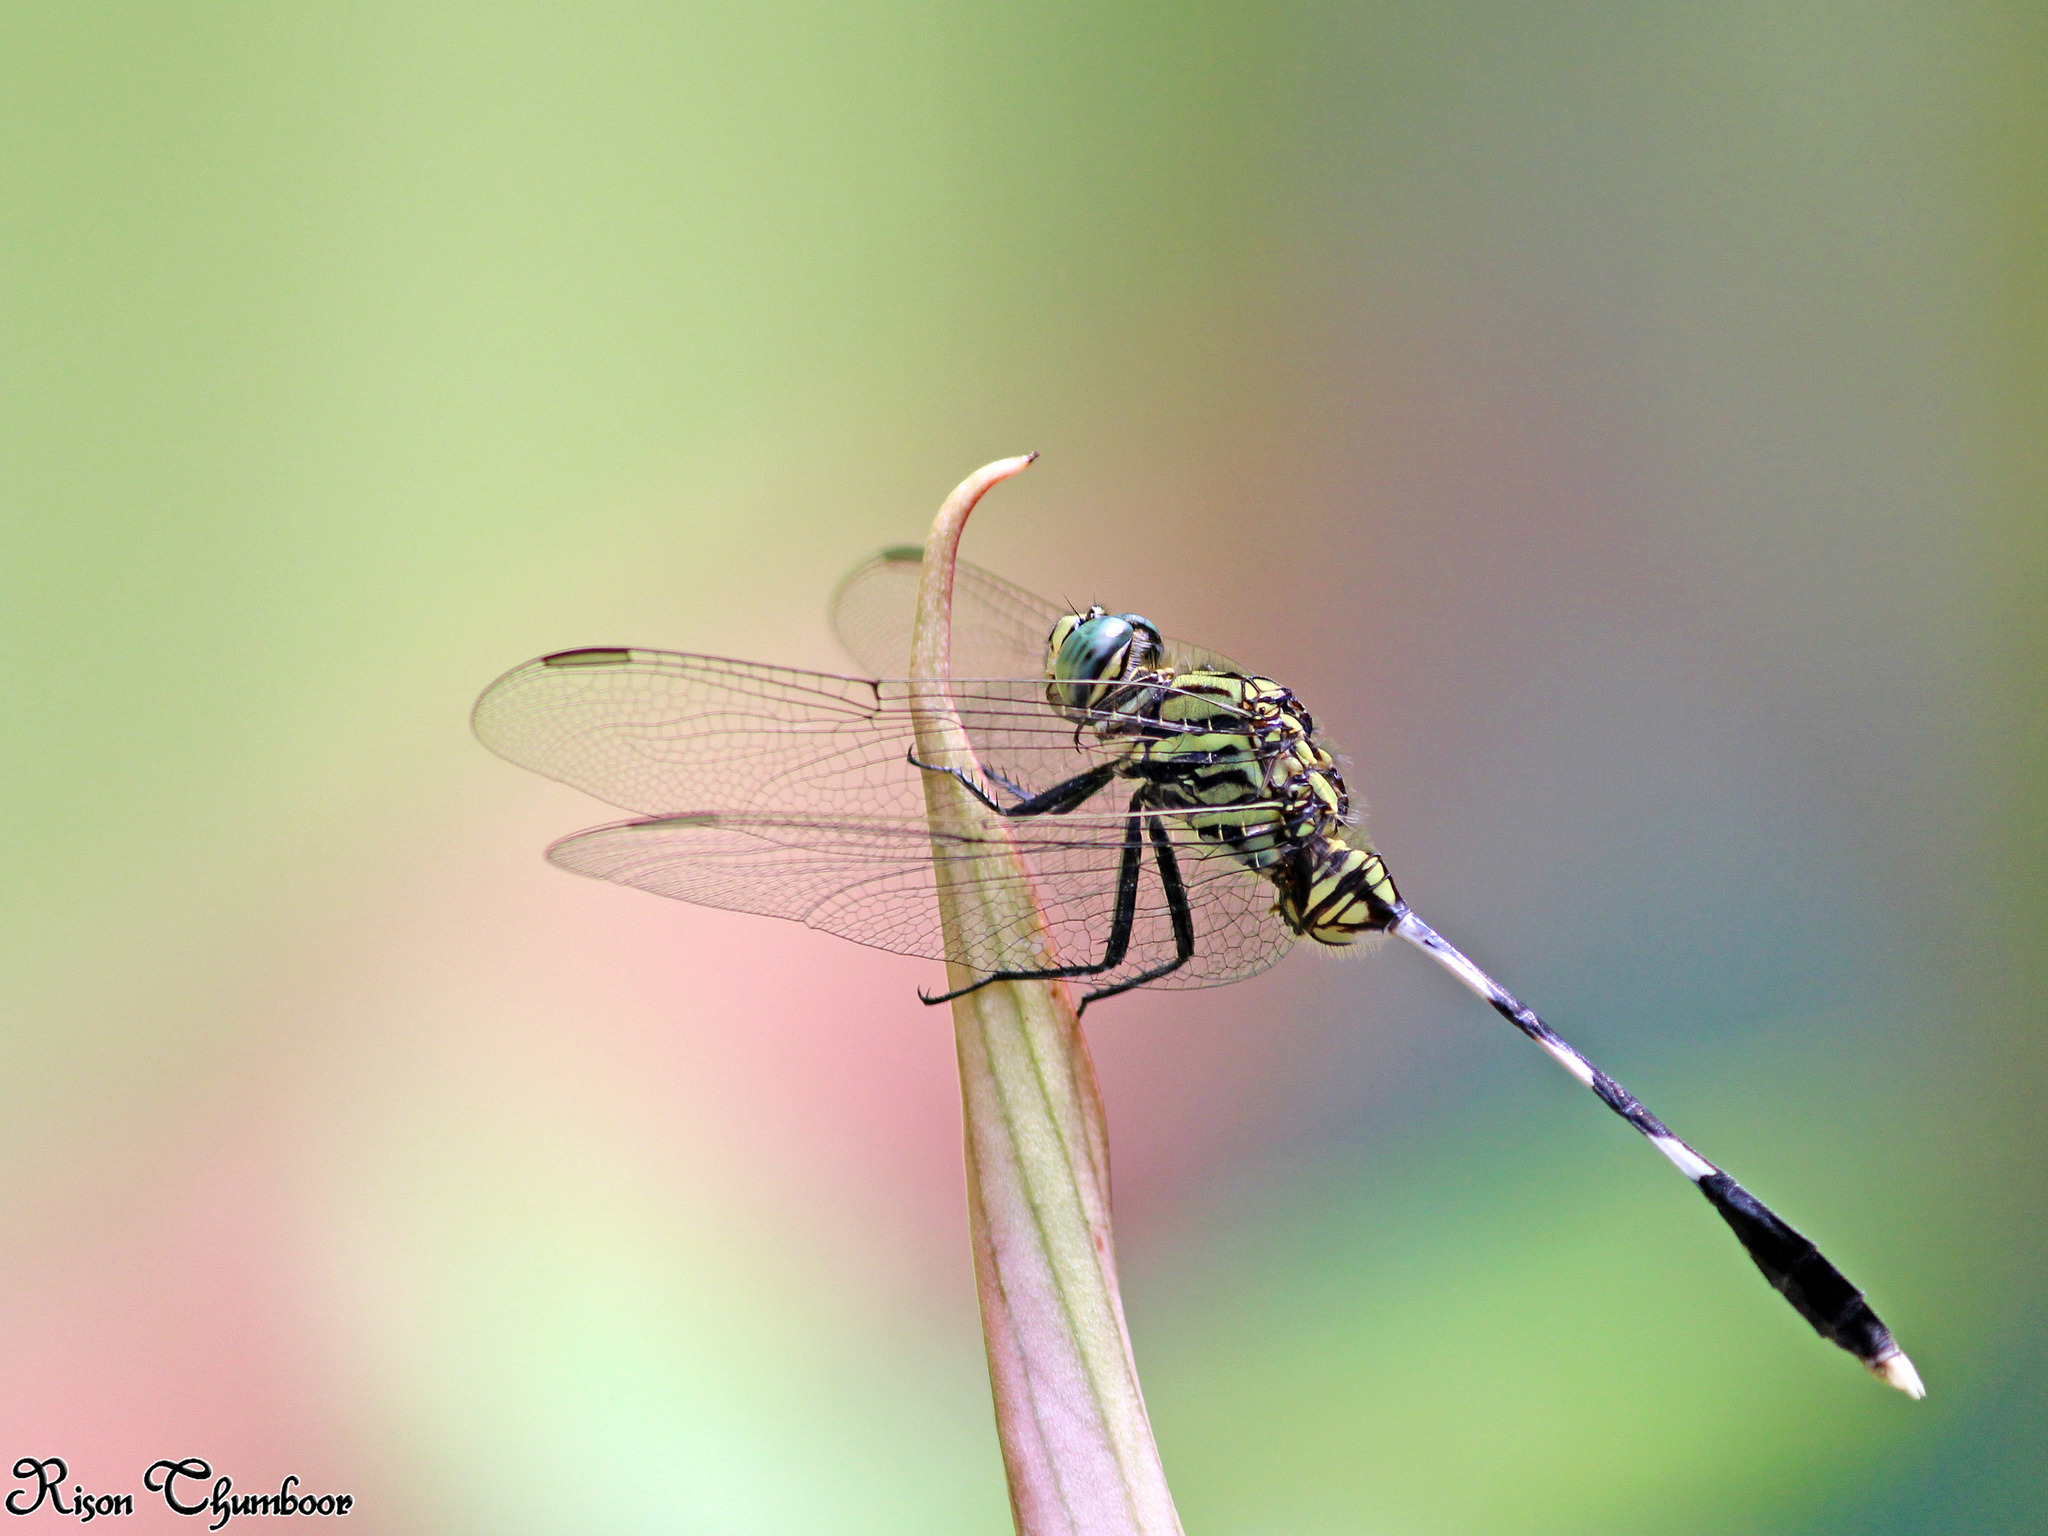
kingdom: Animalia
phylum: Arthropoda
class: Insecta
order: Odonata
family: Libellulidae
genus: Orthetrum
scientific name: Orthetrum sabina
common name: Slender skimmer
